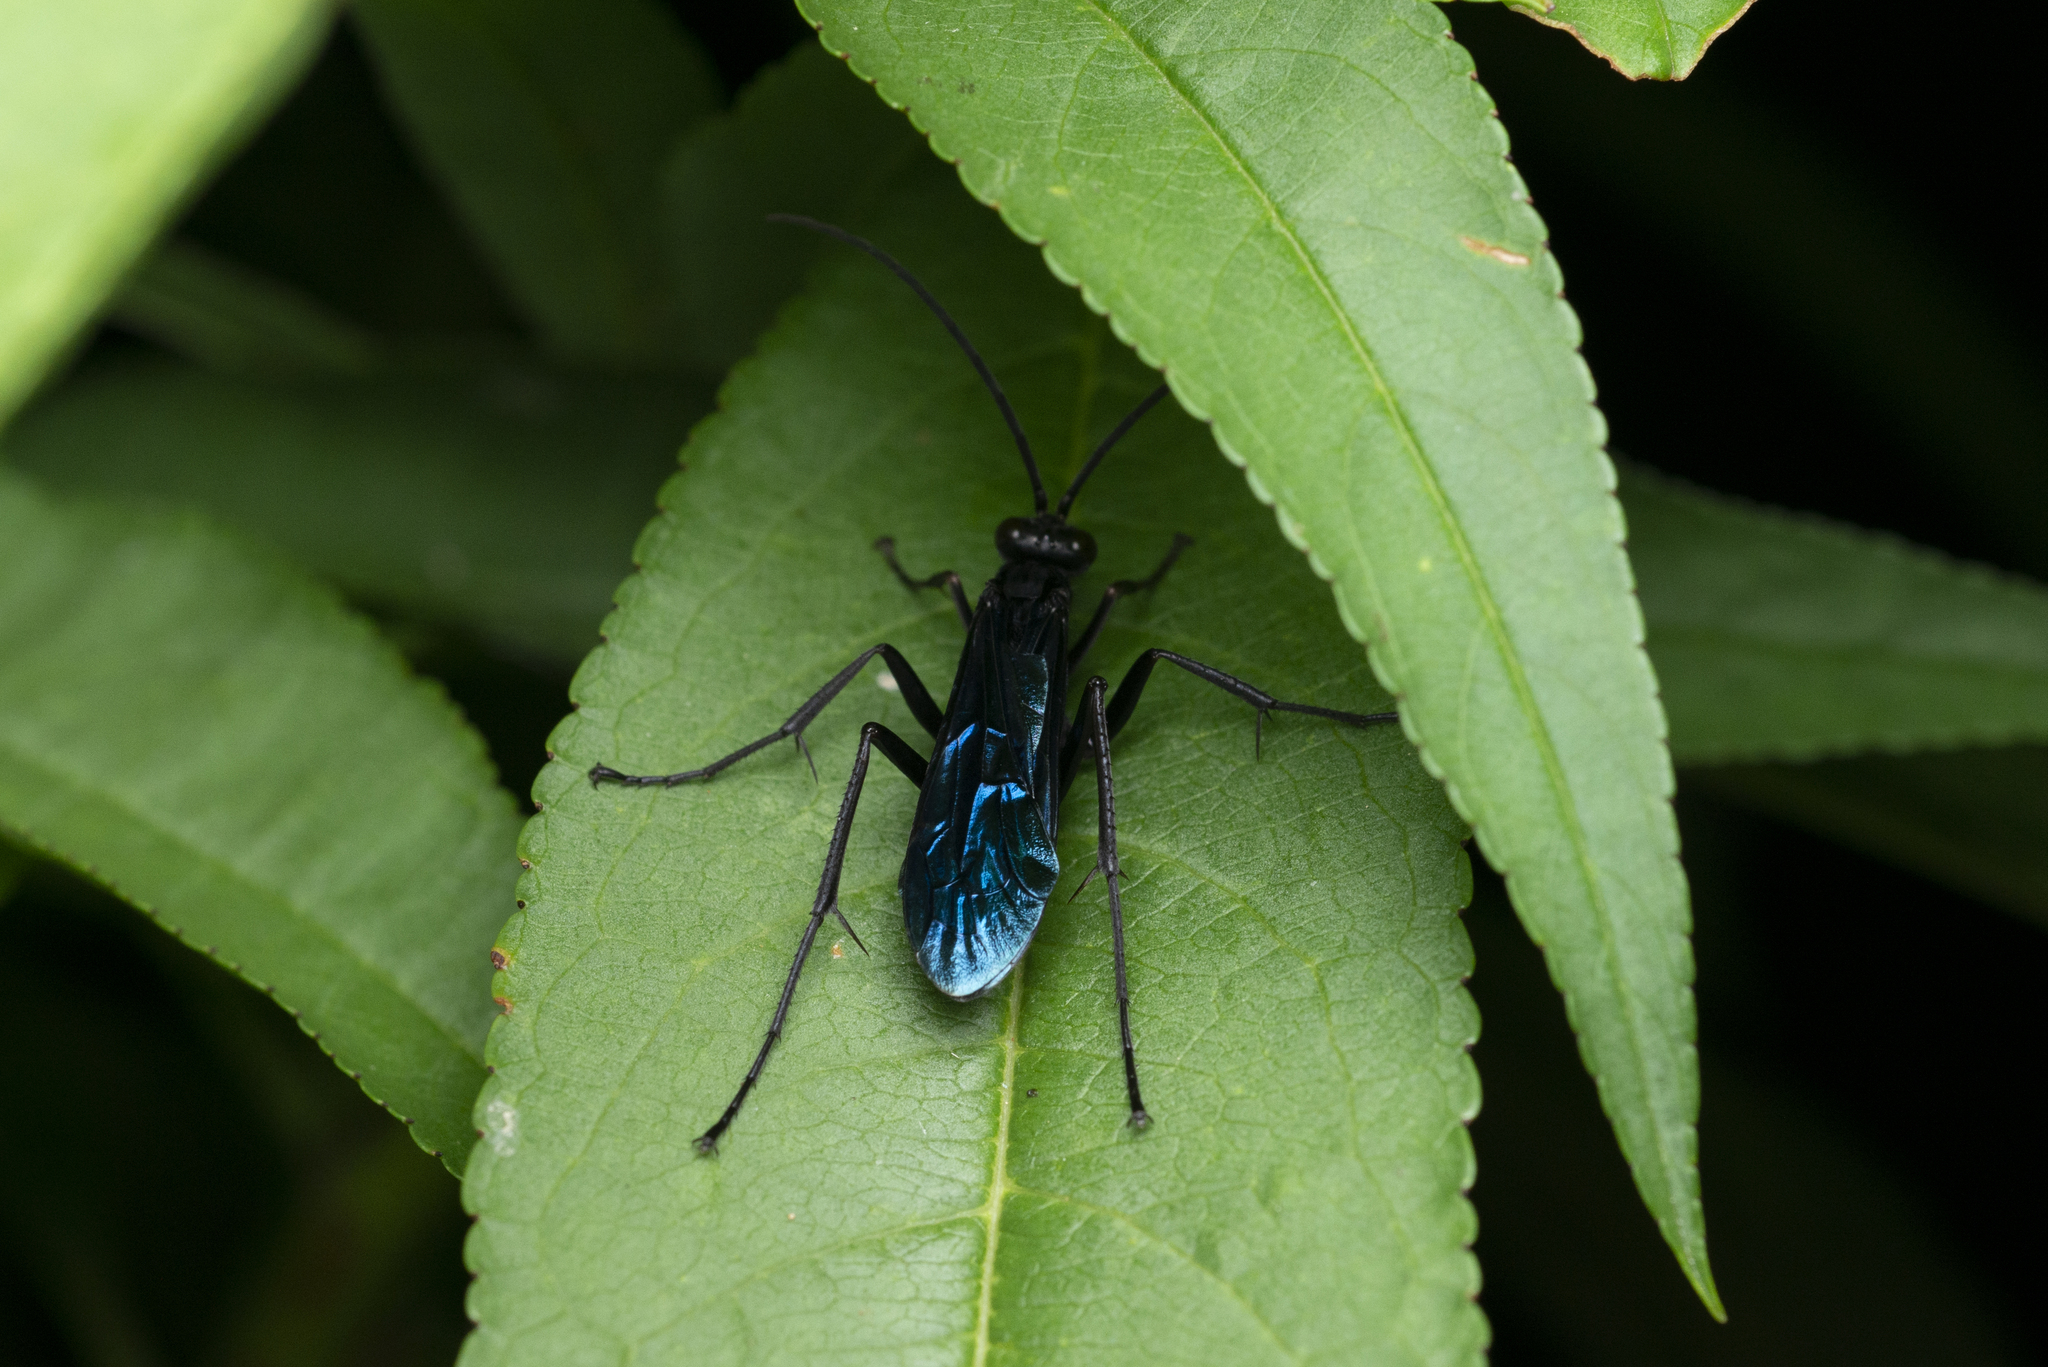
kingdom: Animalia
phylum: Arthropoda
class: Insecta
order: Hymenoptera
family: Pompilidae
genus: Cyphononyx
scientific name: Cyphononyx bipartitus
